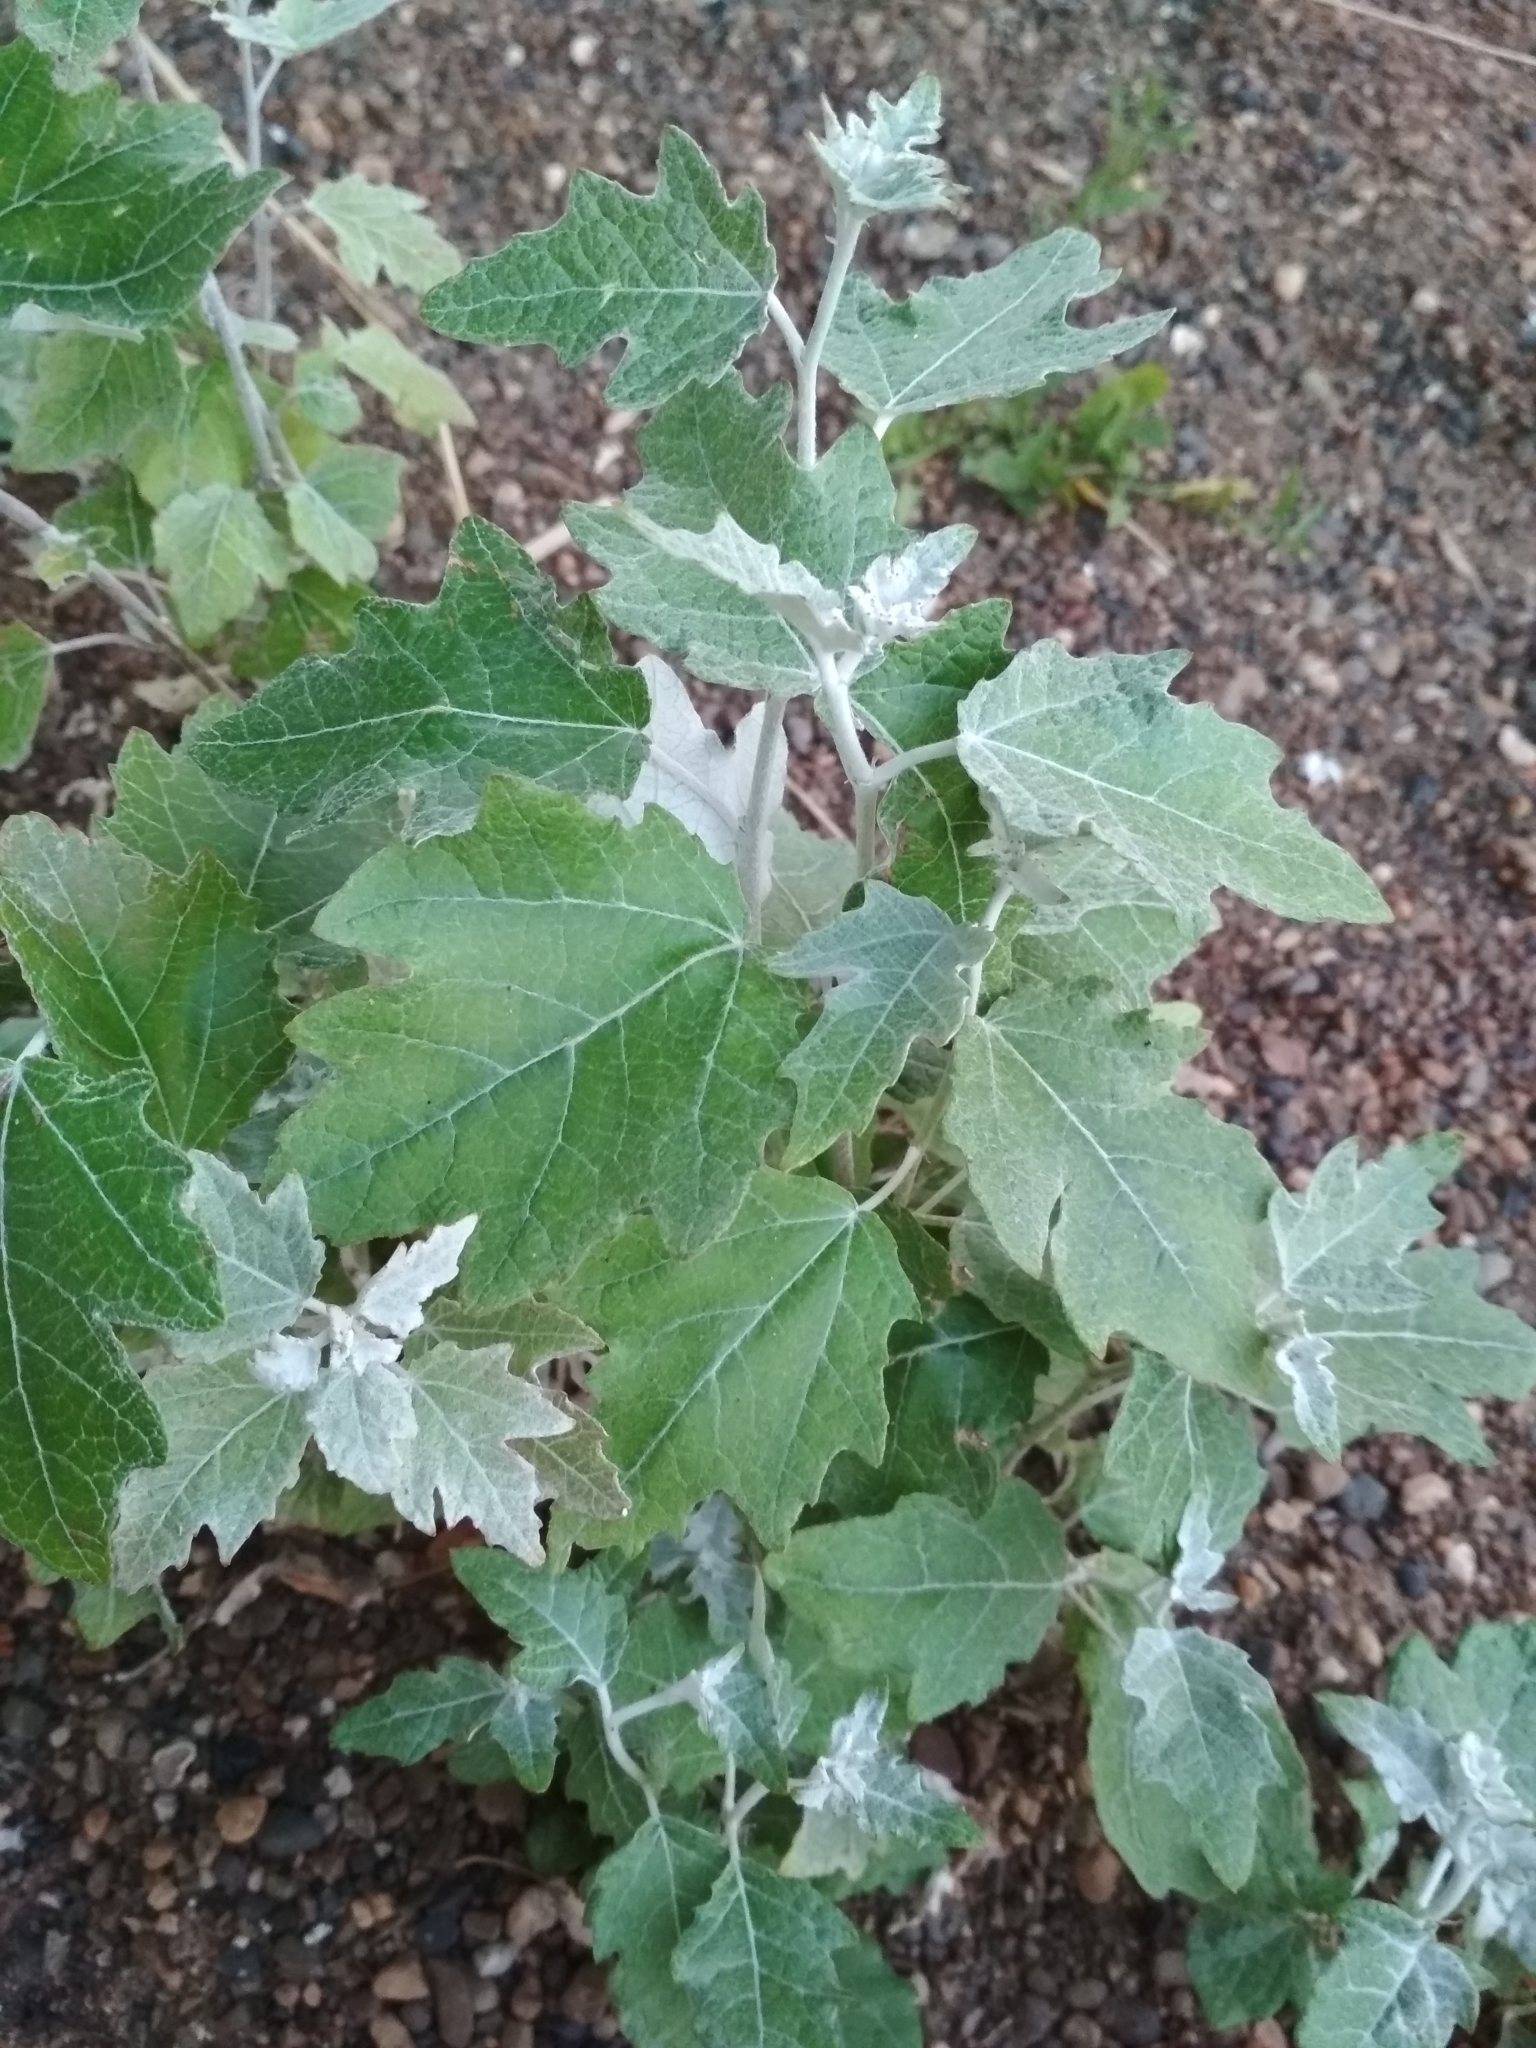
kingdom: Plantae
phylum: Tracheophyta
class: Magnoliopsida
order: Malpighiales
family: Salicaceae
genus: Populus
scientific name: Populus alba
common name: White poplar
